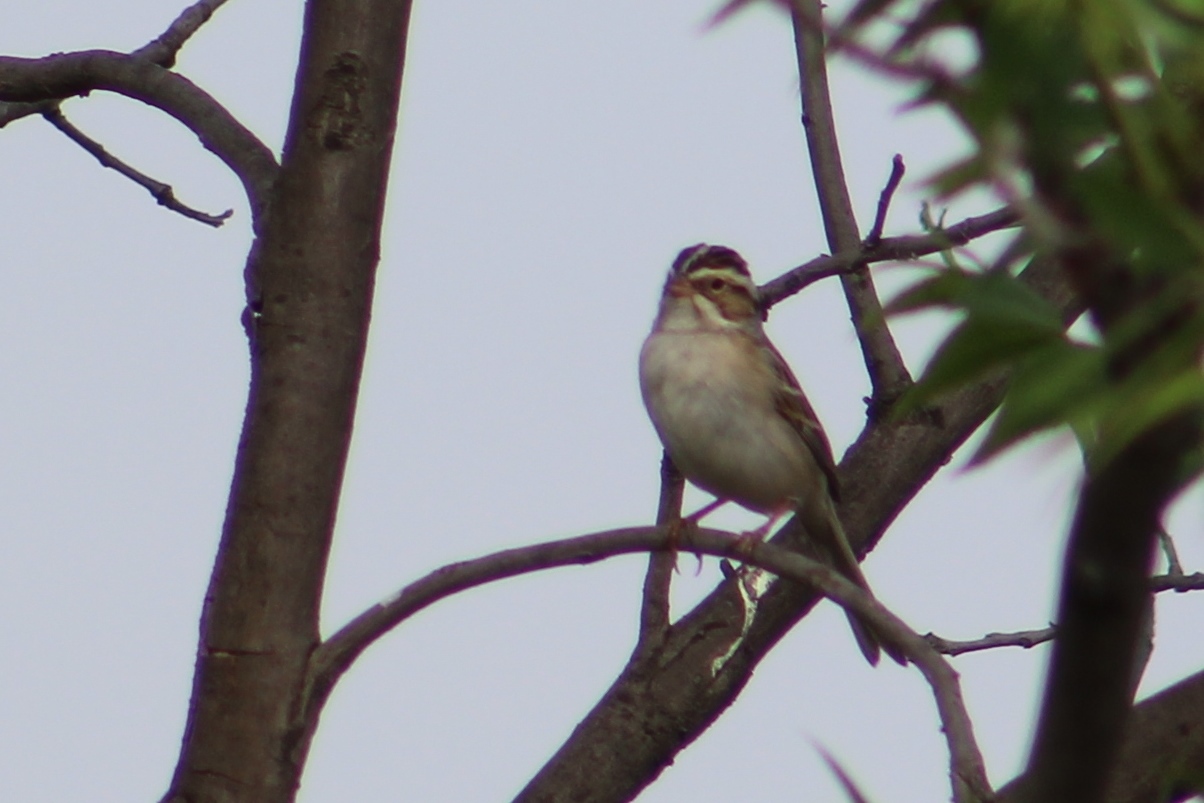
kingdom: Animalia
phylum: Chordata
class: Aves
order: Passeriformes
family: Passerellidae
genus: Spizella
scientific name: Spizella pallida
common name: Clay-colored sparrow
